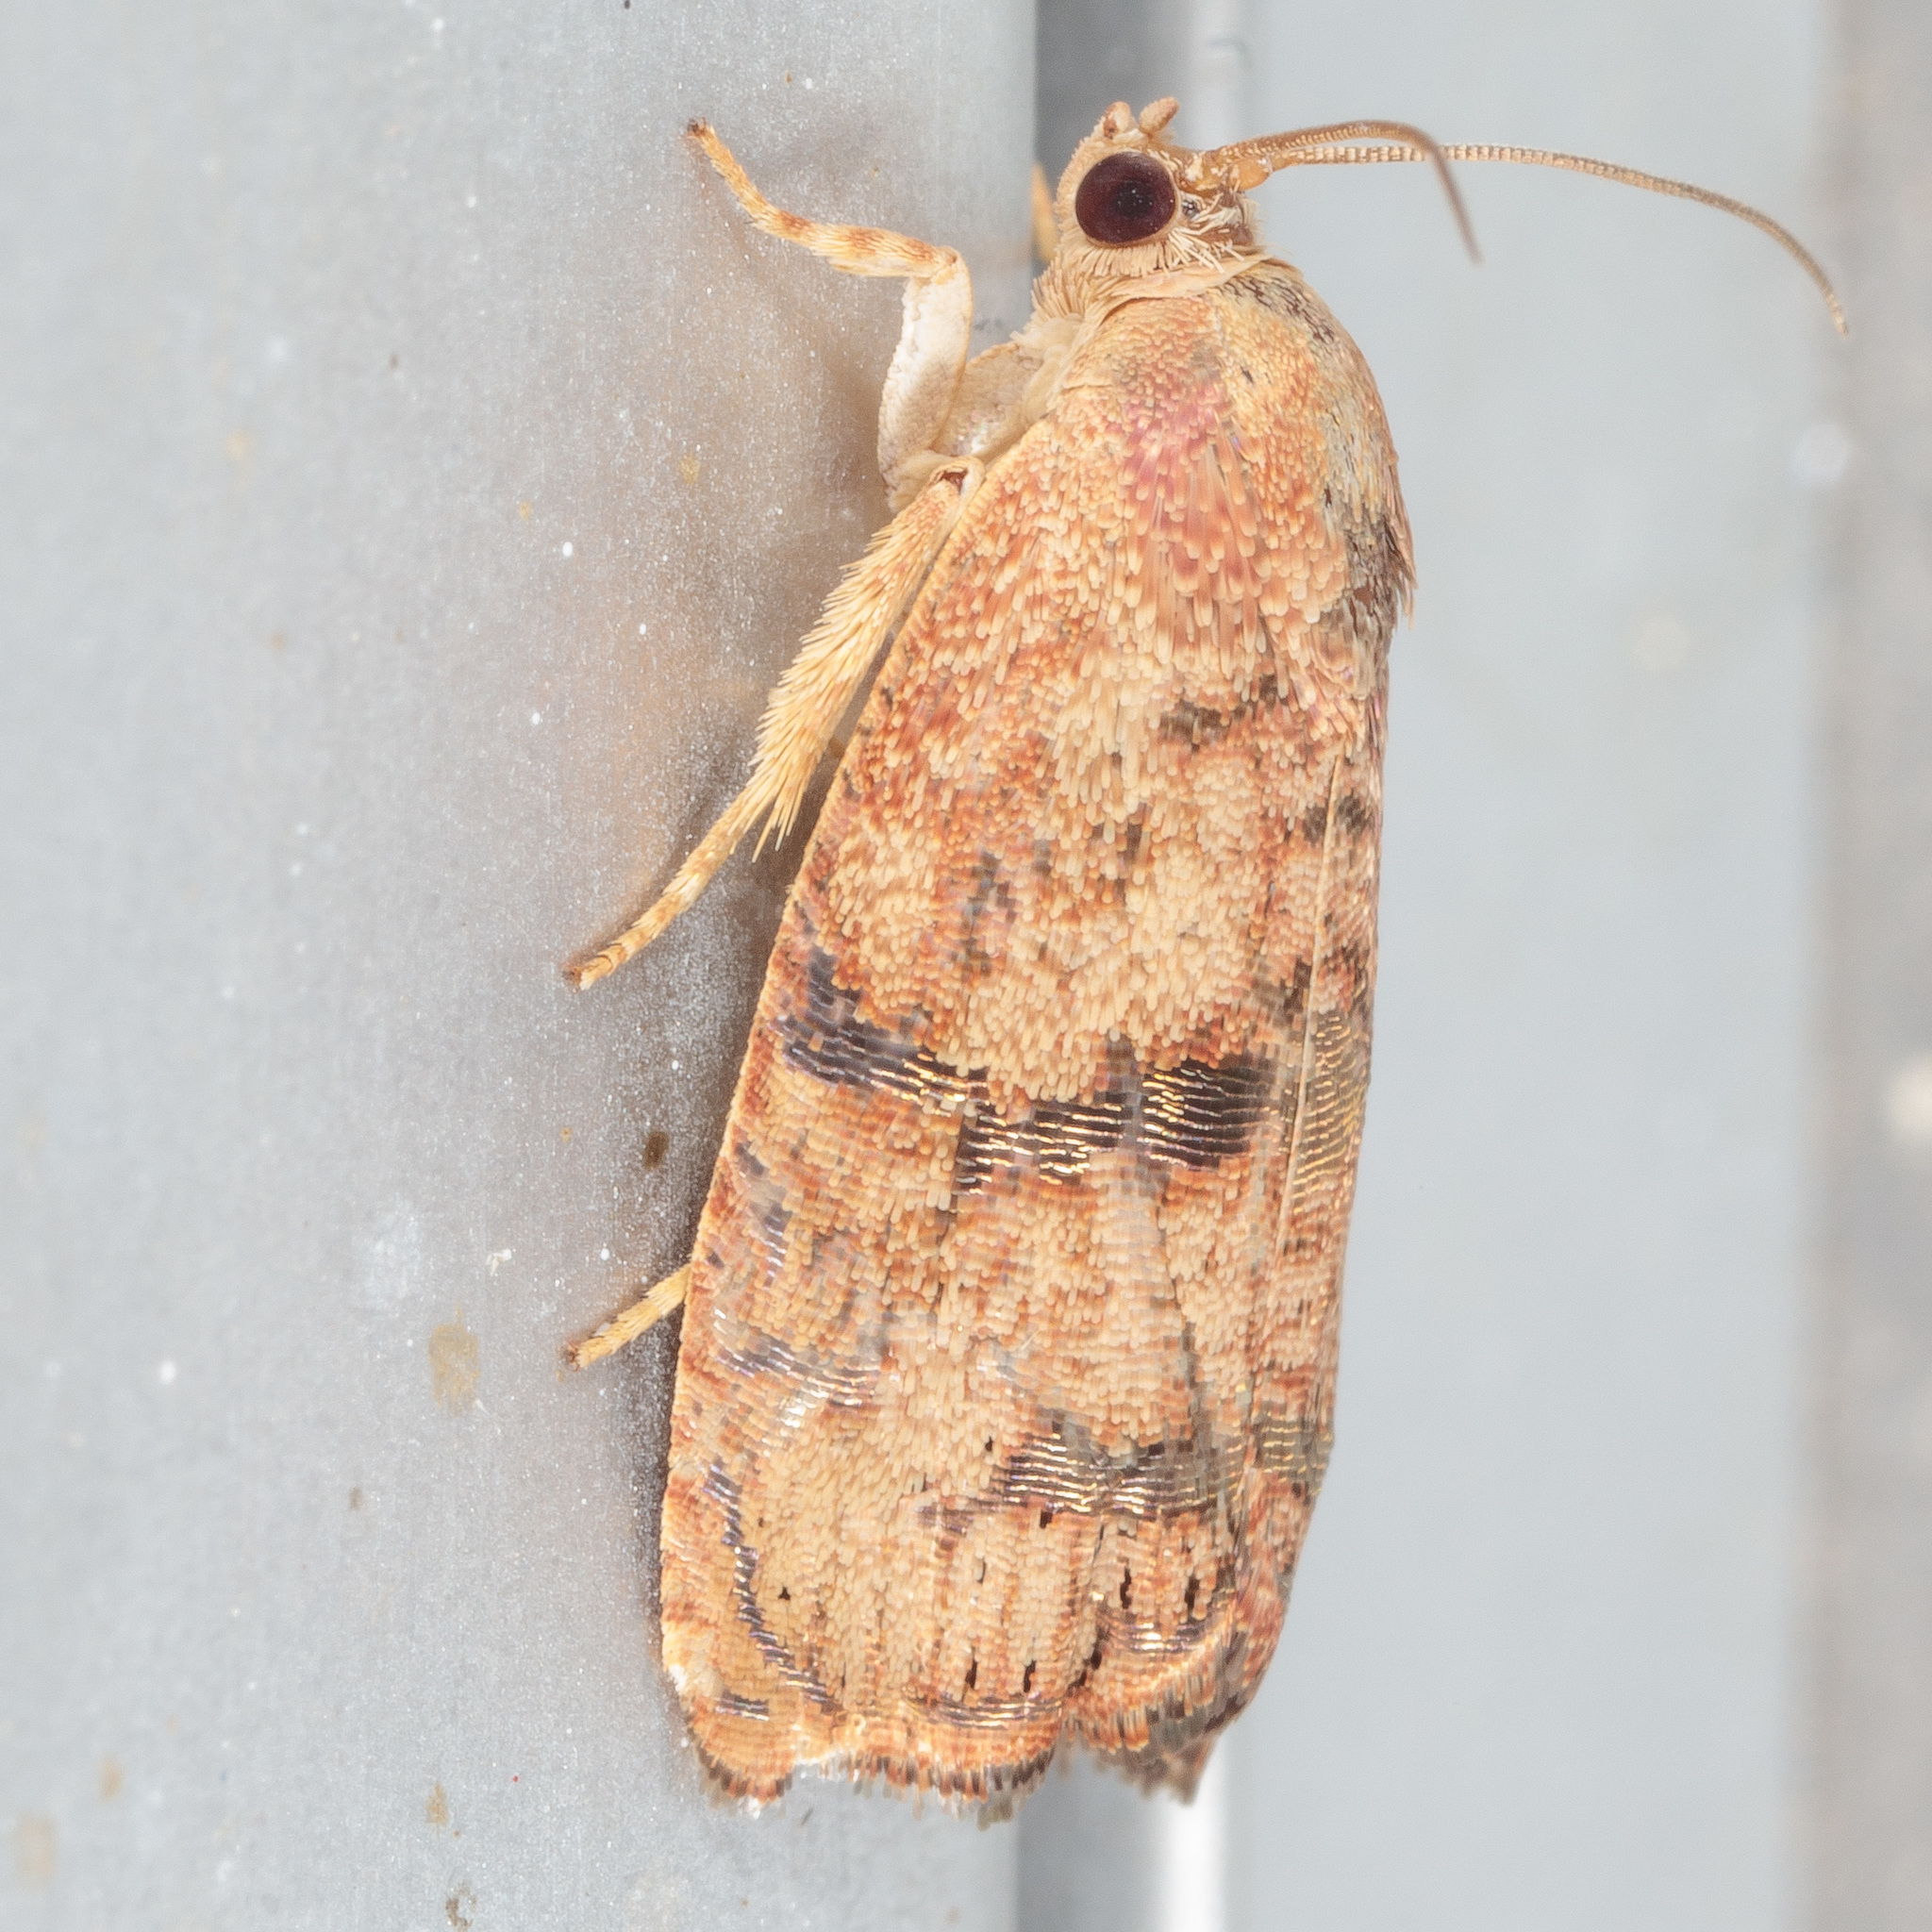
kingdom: Animalia
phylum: Arthropoda
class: Insecta
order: Lepidoptera
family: Tortricidae
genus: Cydia
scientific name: Cydia latiferreana
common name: Filbertworm moth
